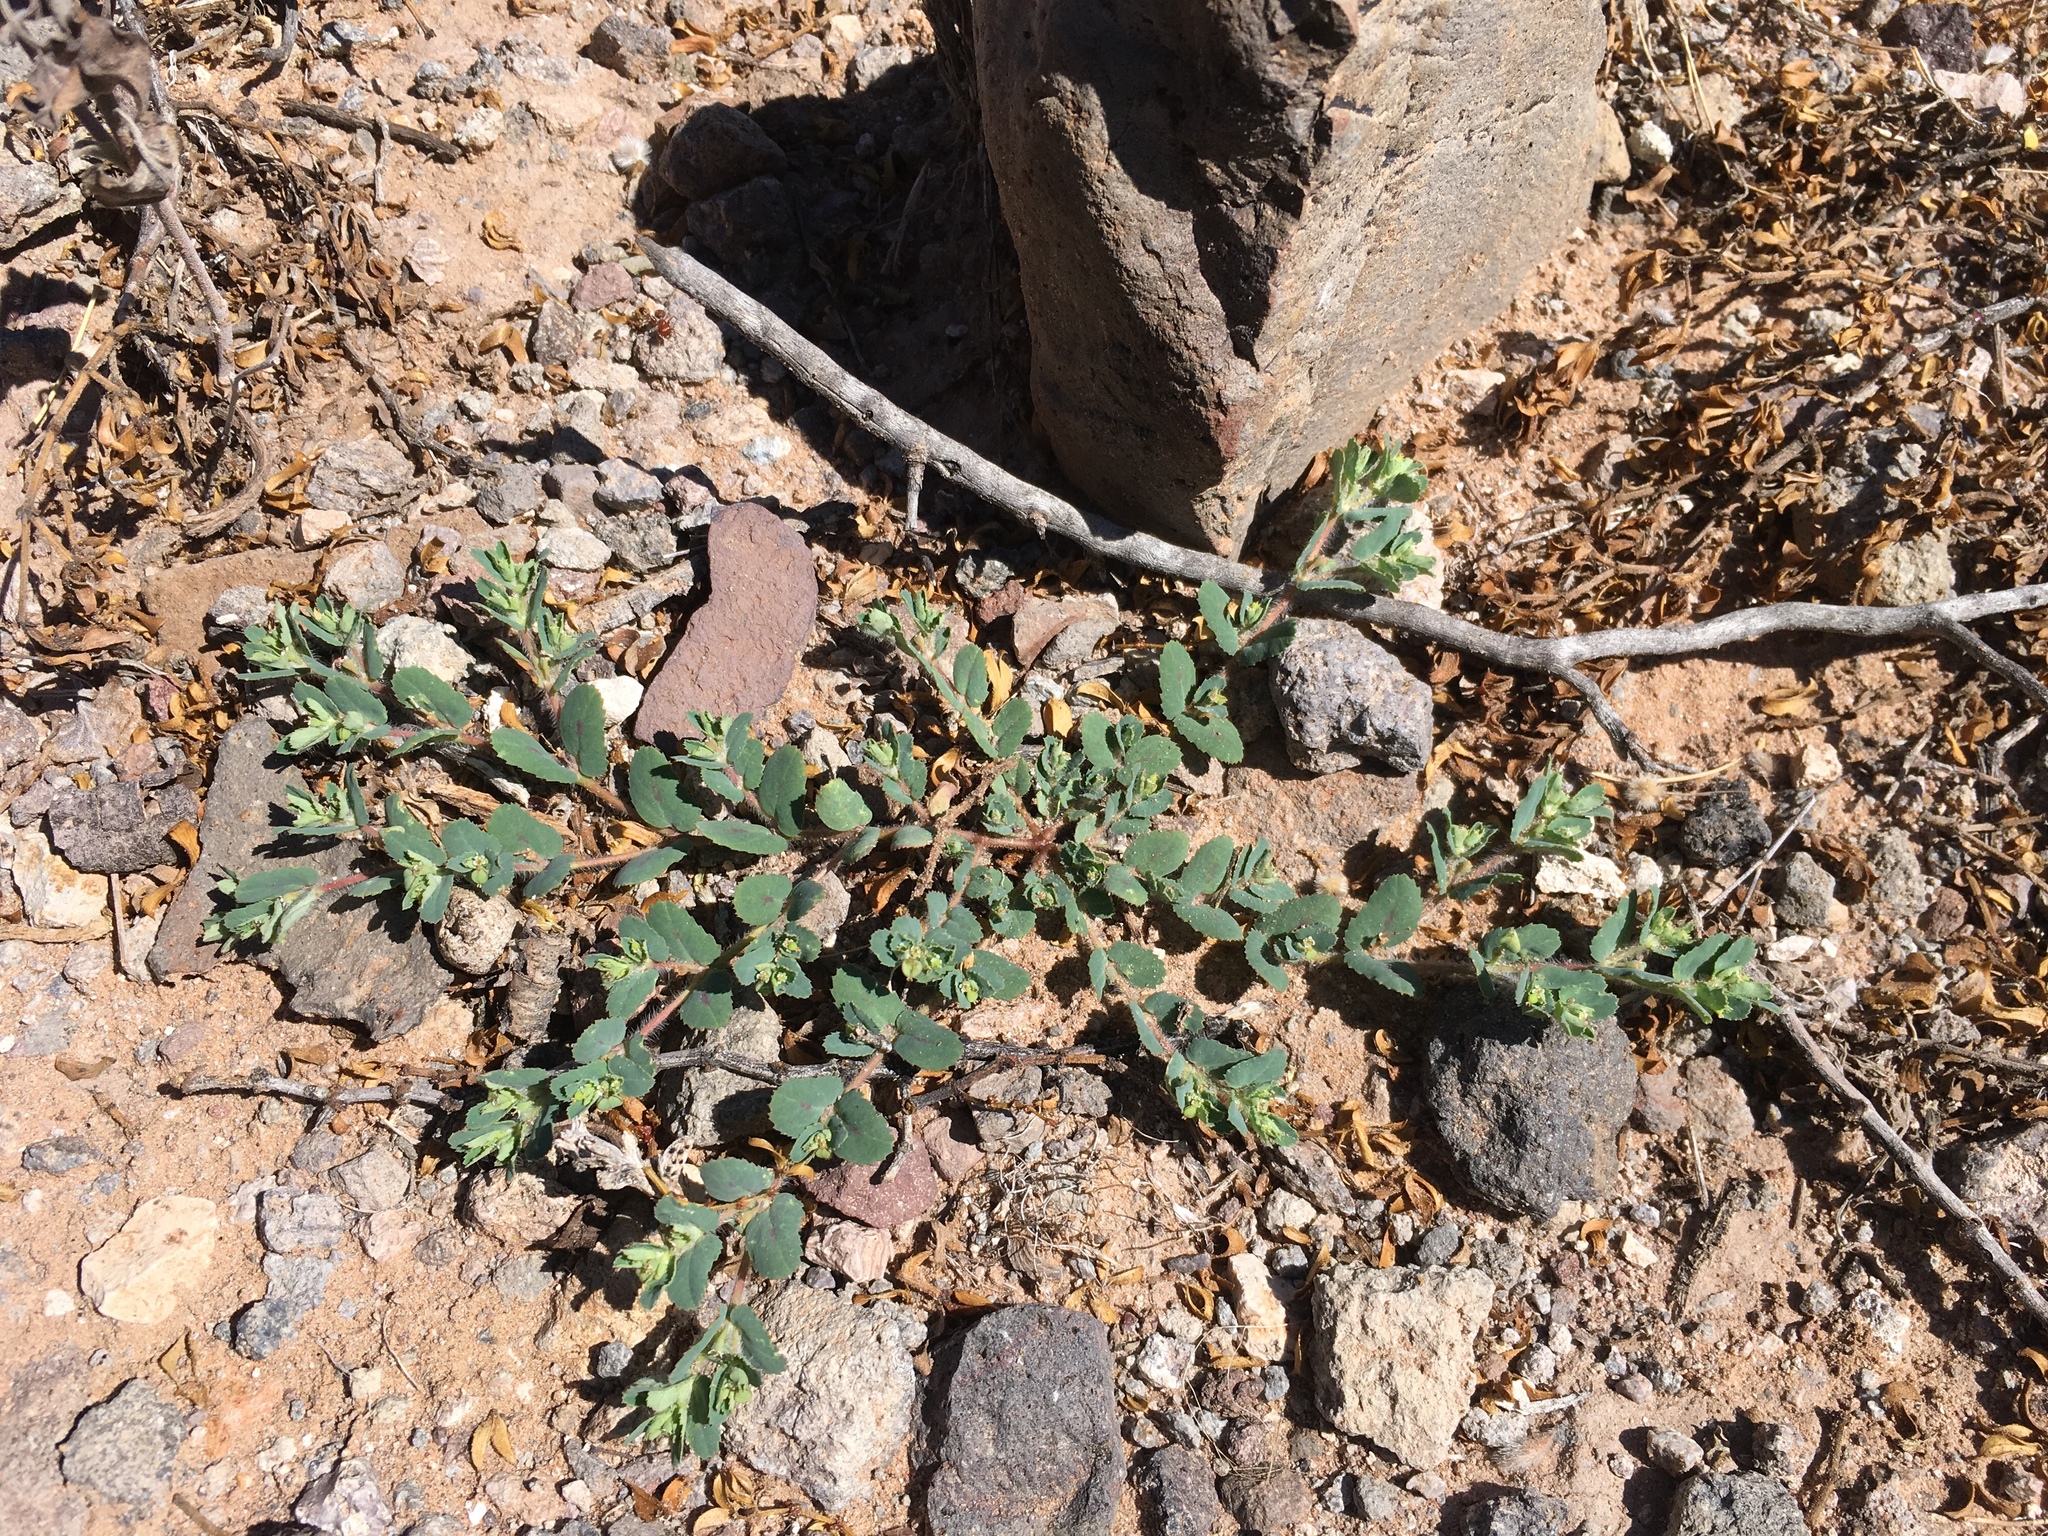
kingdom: Plantae
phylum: Tracheophyta
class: Magnoliopsida
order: Malpighiales
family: Euphorbiaceae
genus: Euphorbia
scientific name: Euphorbia serrula
